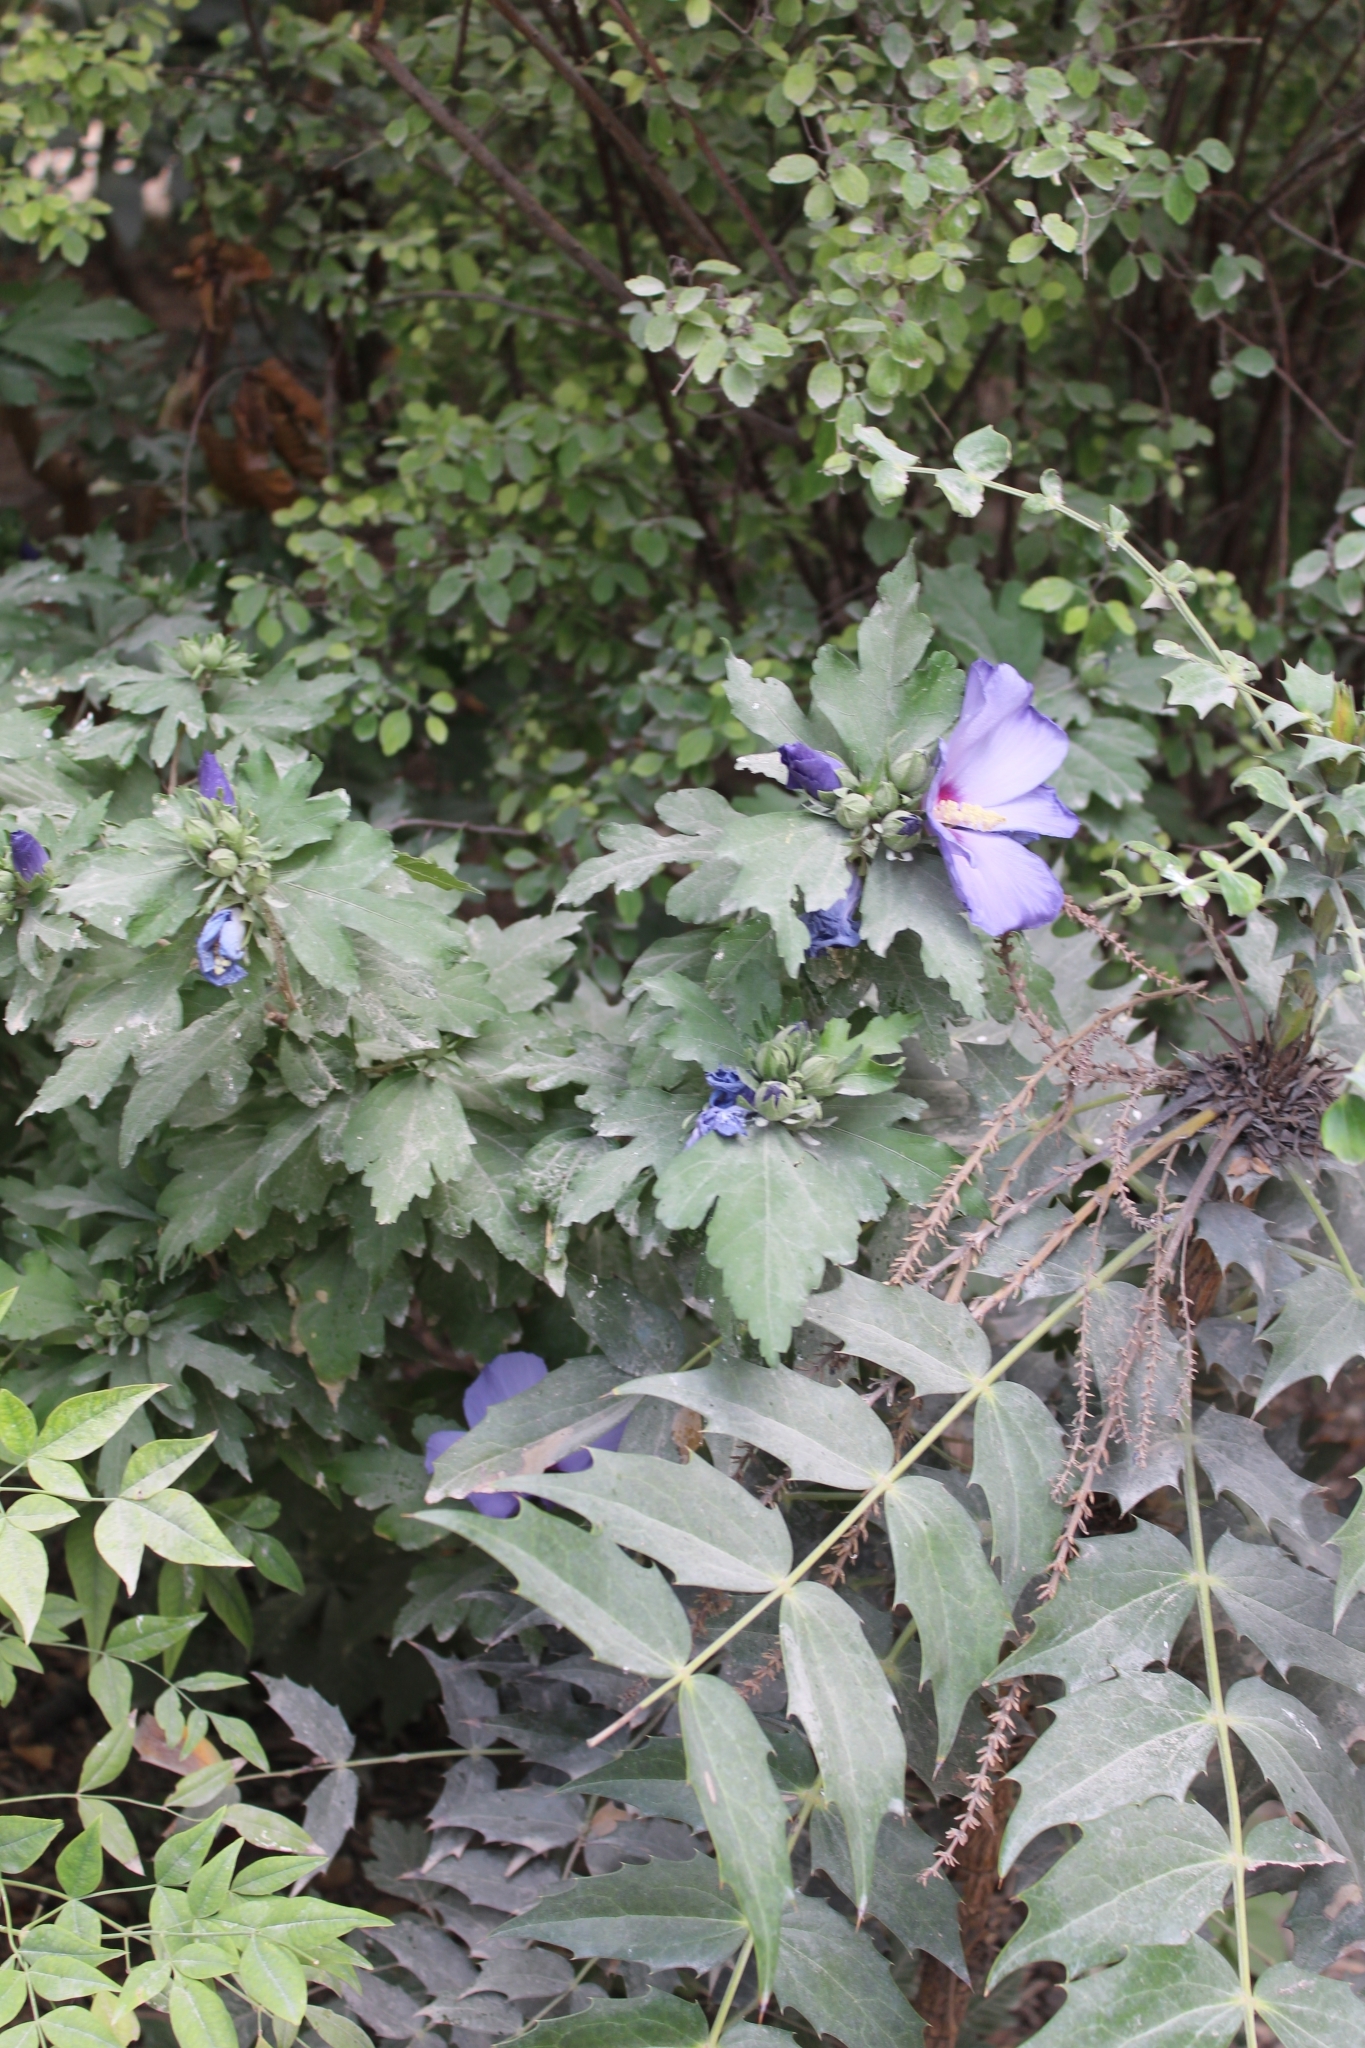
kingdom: Plantae
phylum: Tracheophyta
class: Magnoliopsida
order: Malvales
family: Malvaceae
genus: Hibiscus
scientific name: Hibiscus syriacus
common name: Syrian ketmia
